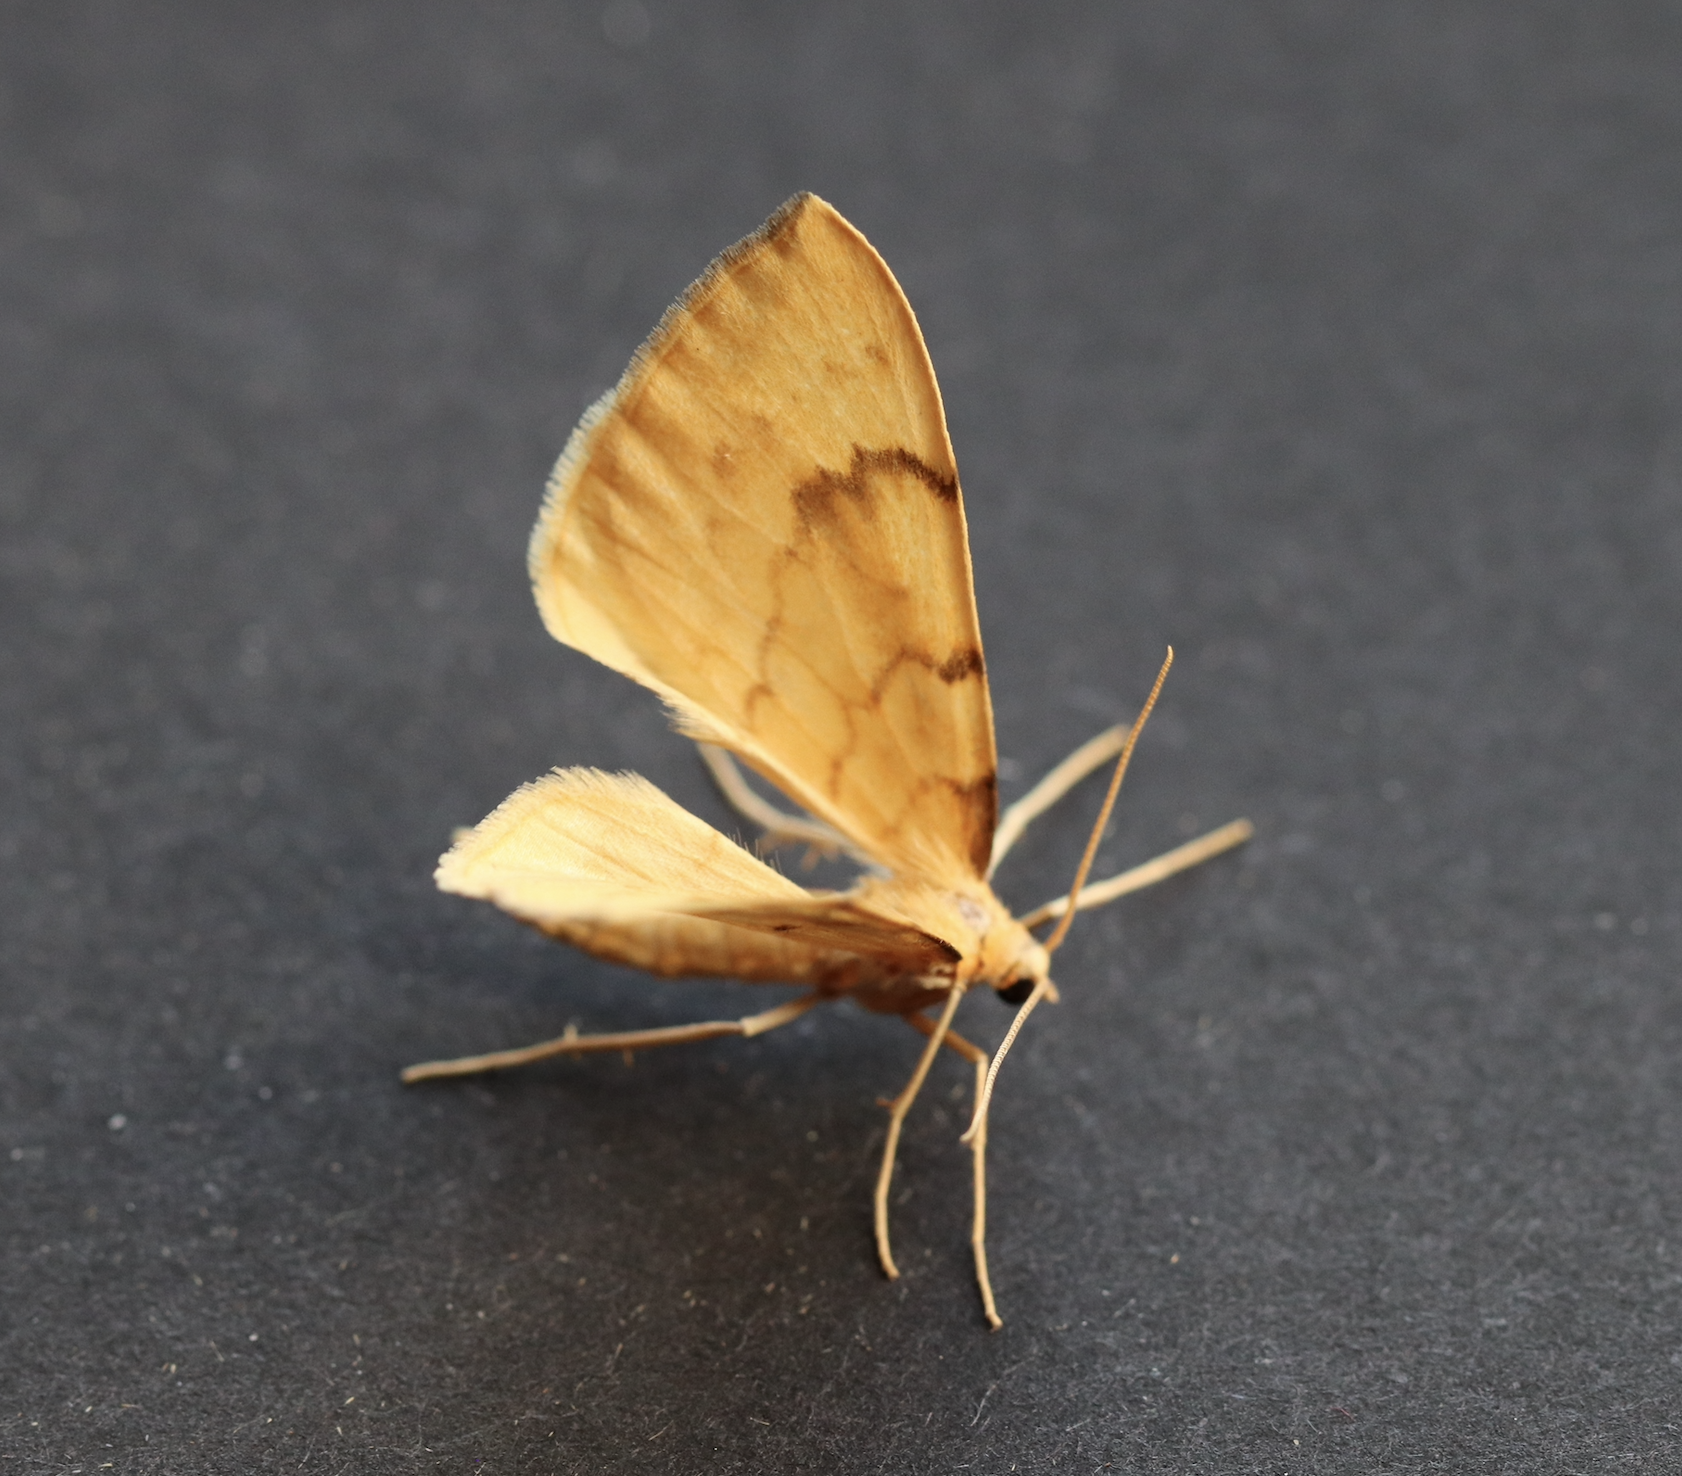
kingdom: Animalia
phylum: Arthropoda
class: Insecta
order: Lepidoptera
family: Geometridae
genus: Eulithis
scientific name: Eulithis pyraliata
